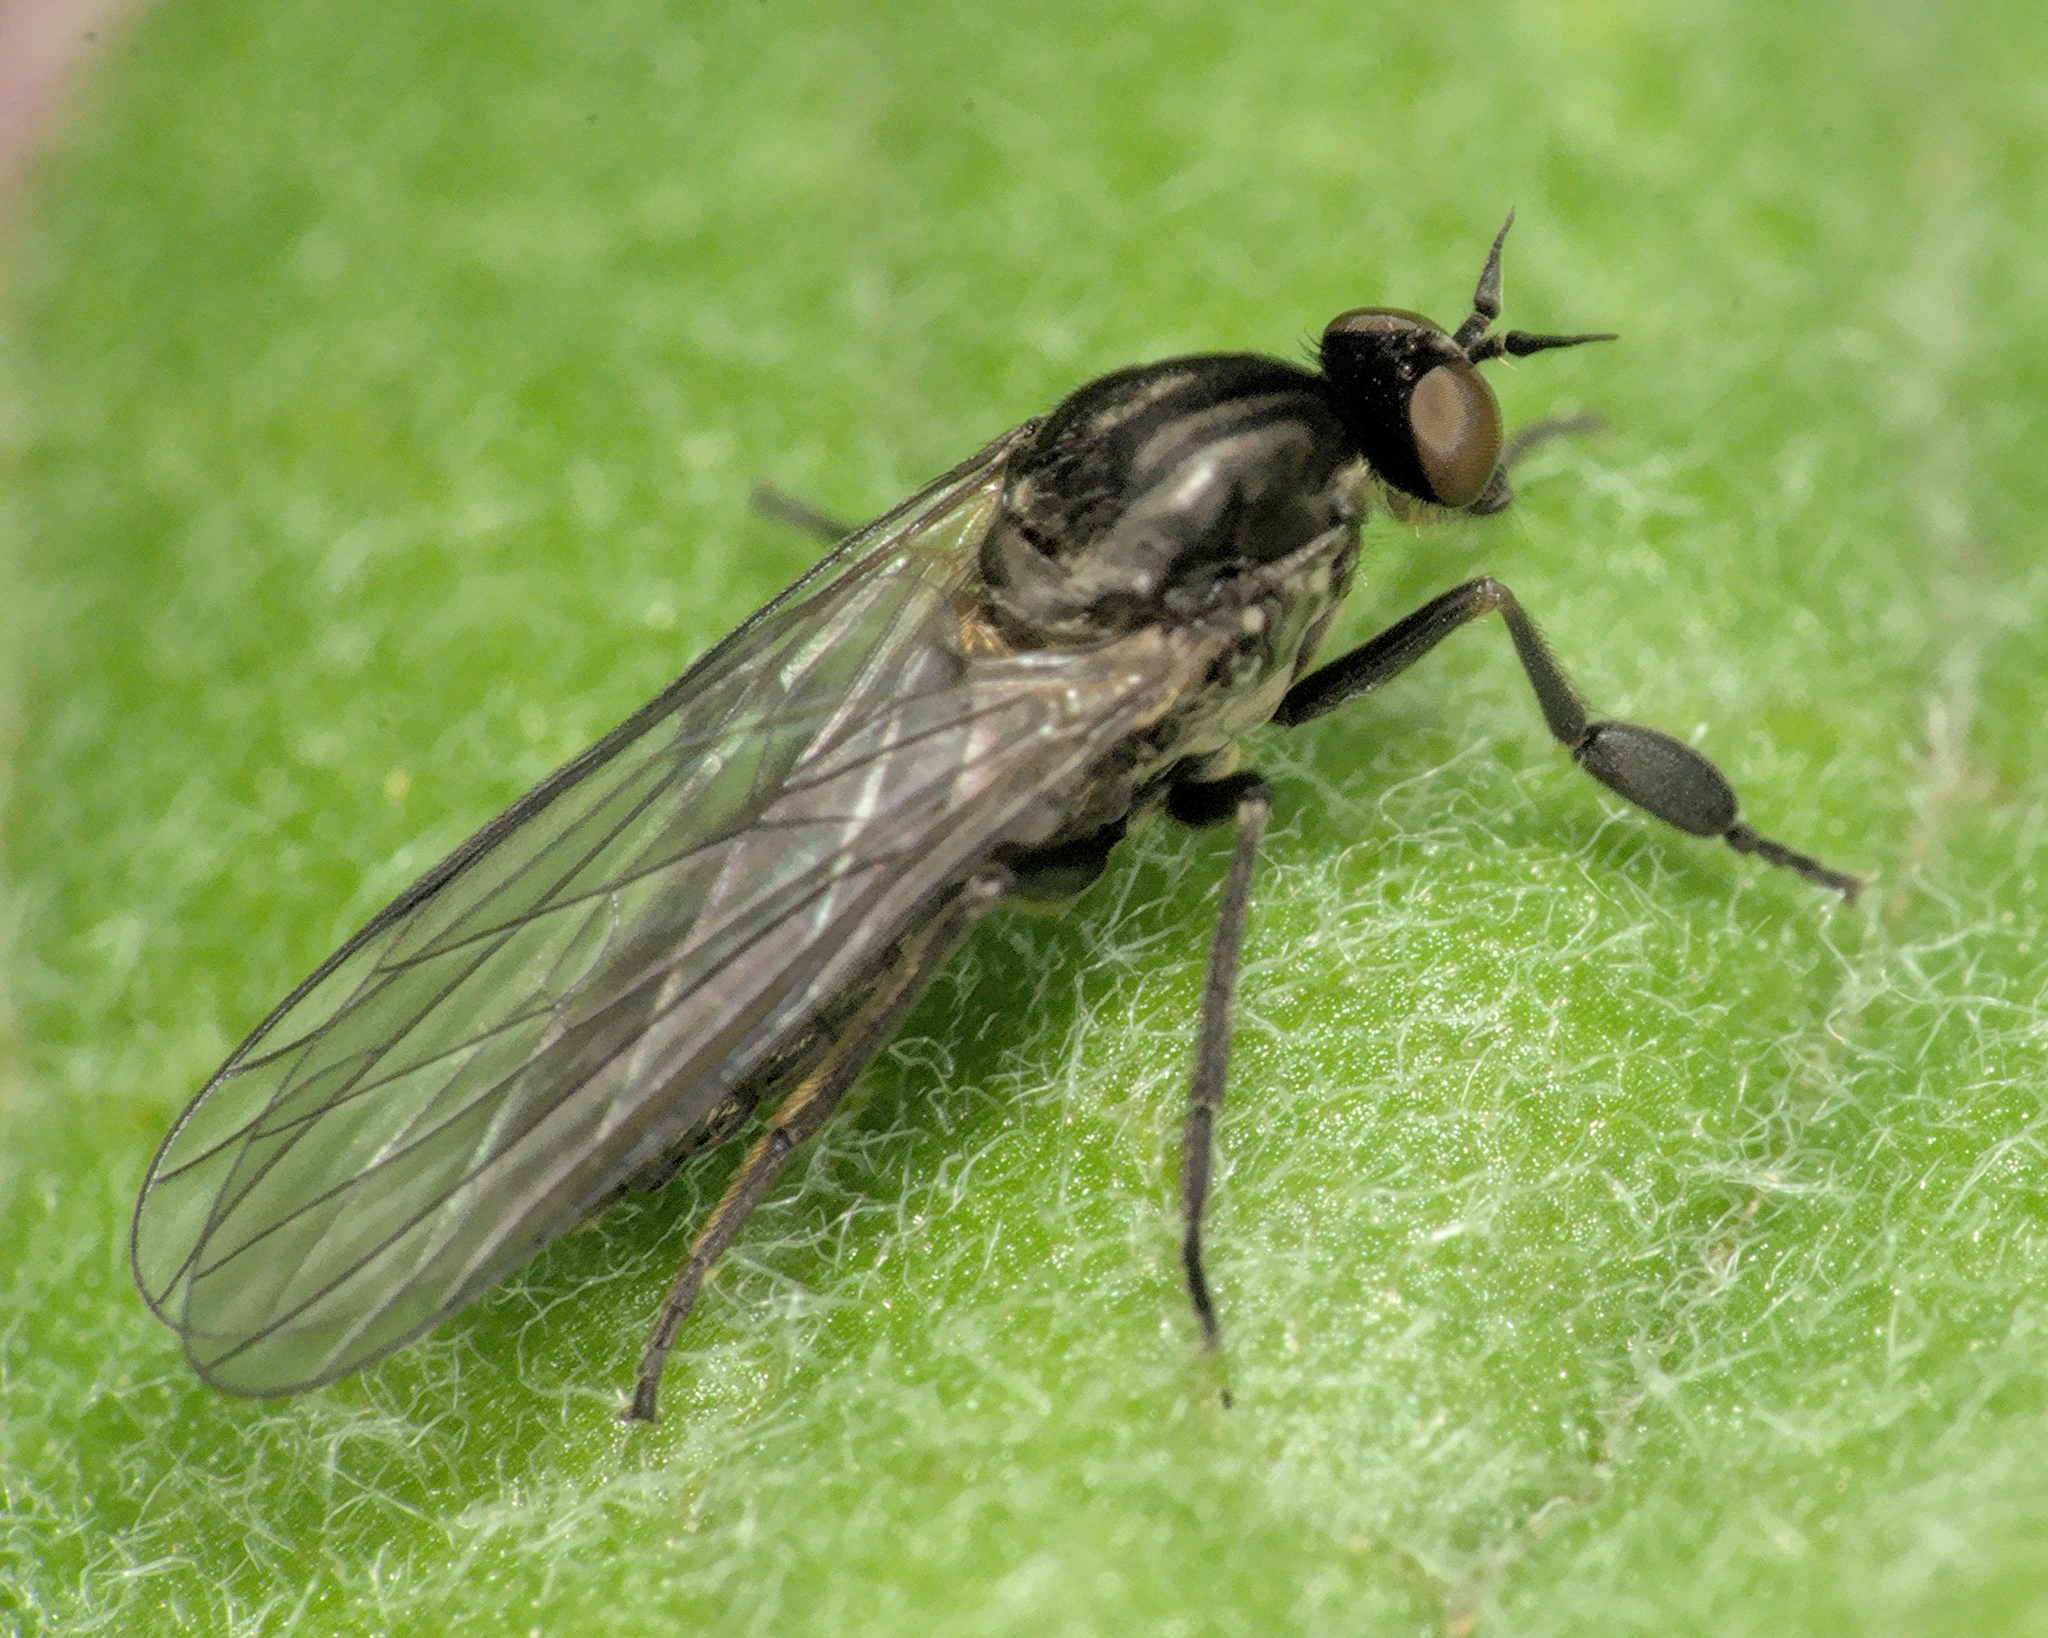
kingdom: Animalia
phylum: Arthropoda
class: Insecta
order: Diptera
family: Empididae
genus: Hilara
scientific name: Hilara maura
